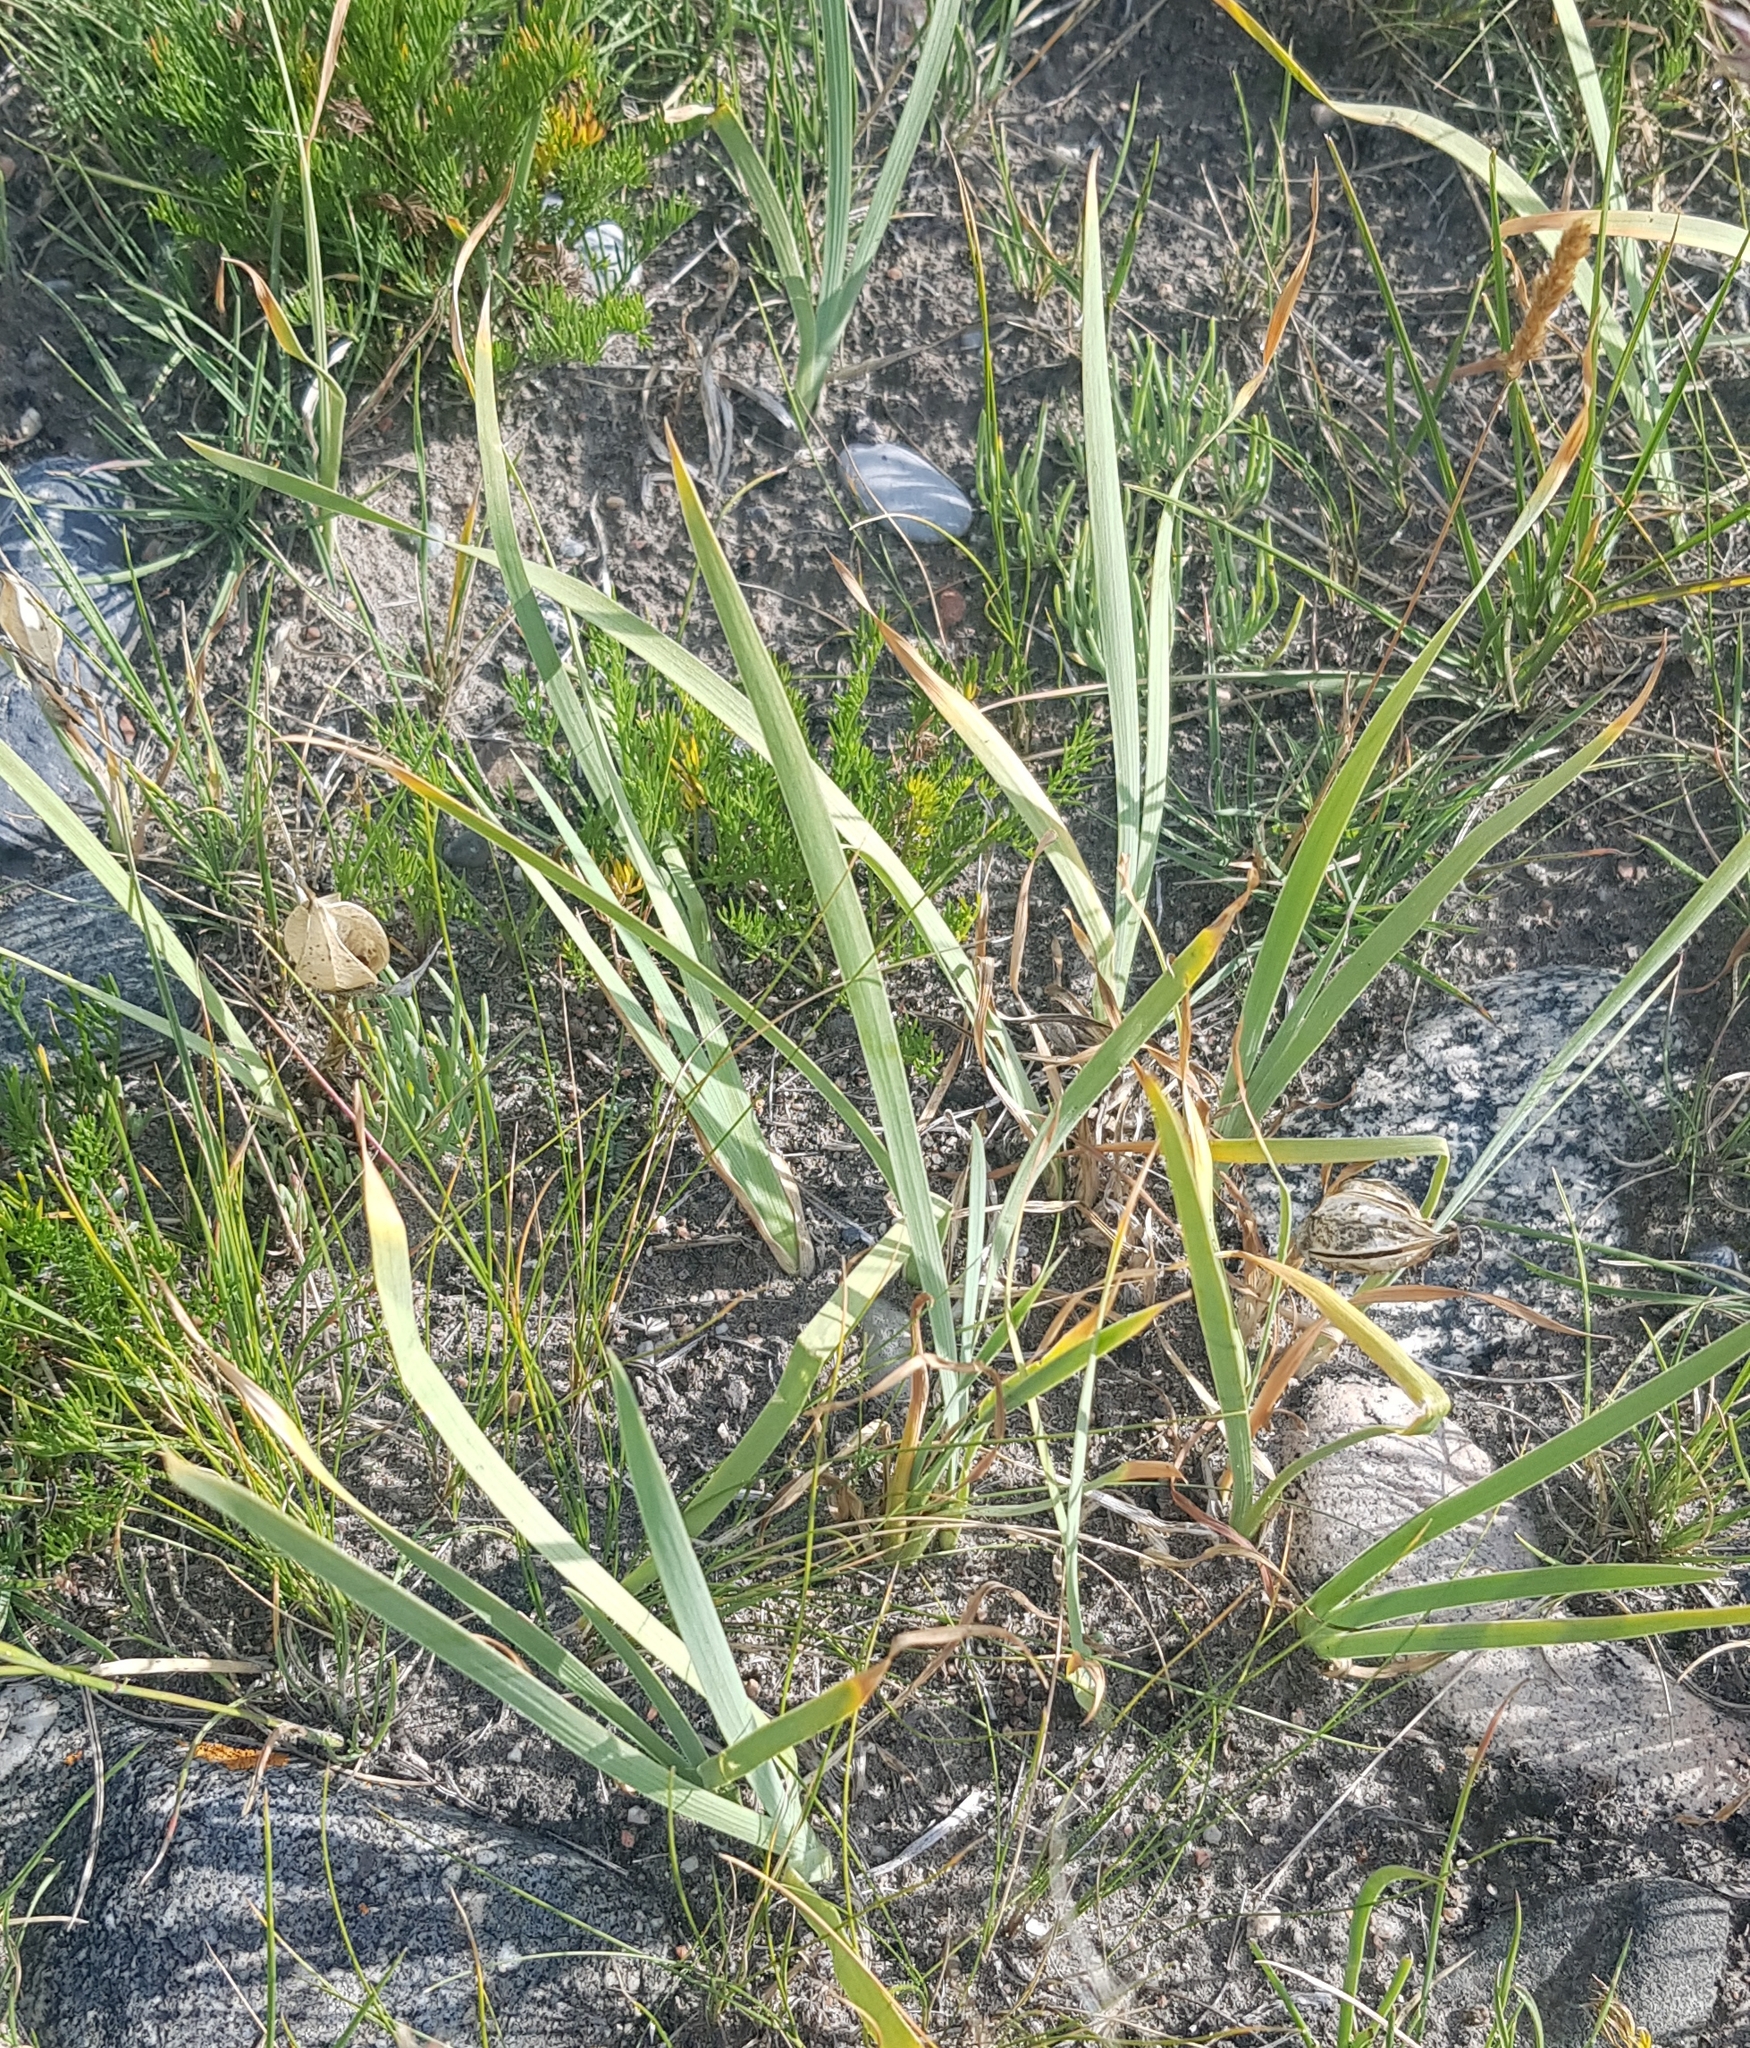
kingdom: Plantae
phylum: Tracheophyta
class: Liliopsida
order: Asparagales
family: Iridaceae
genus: Iris
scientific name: Iris humilis
